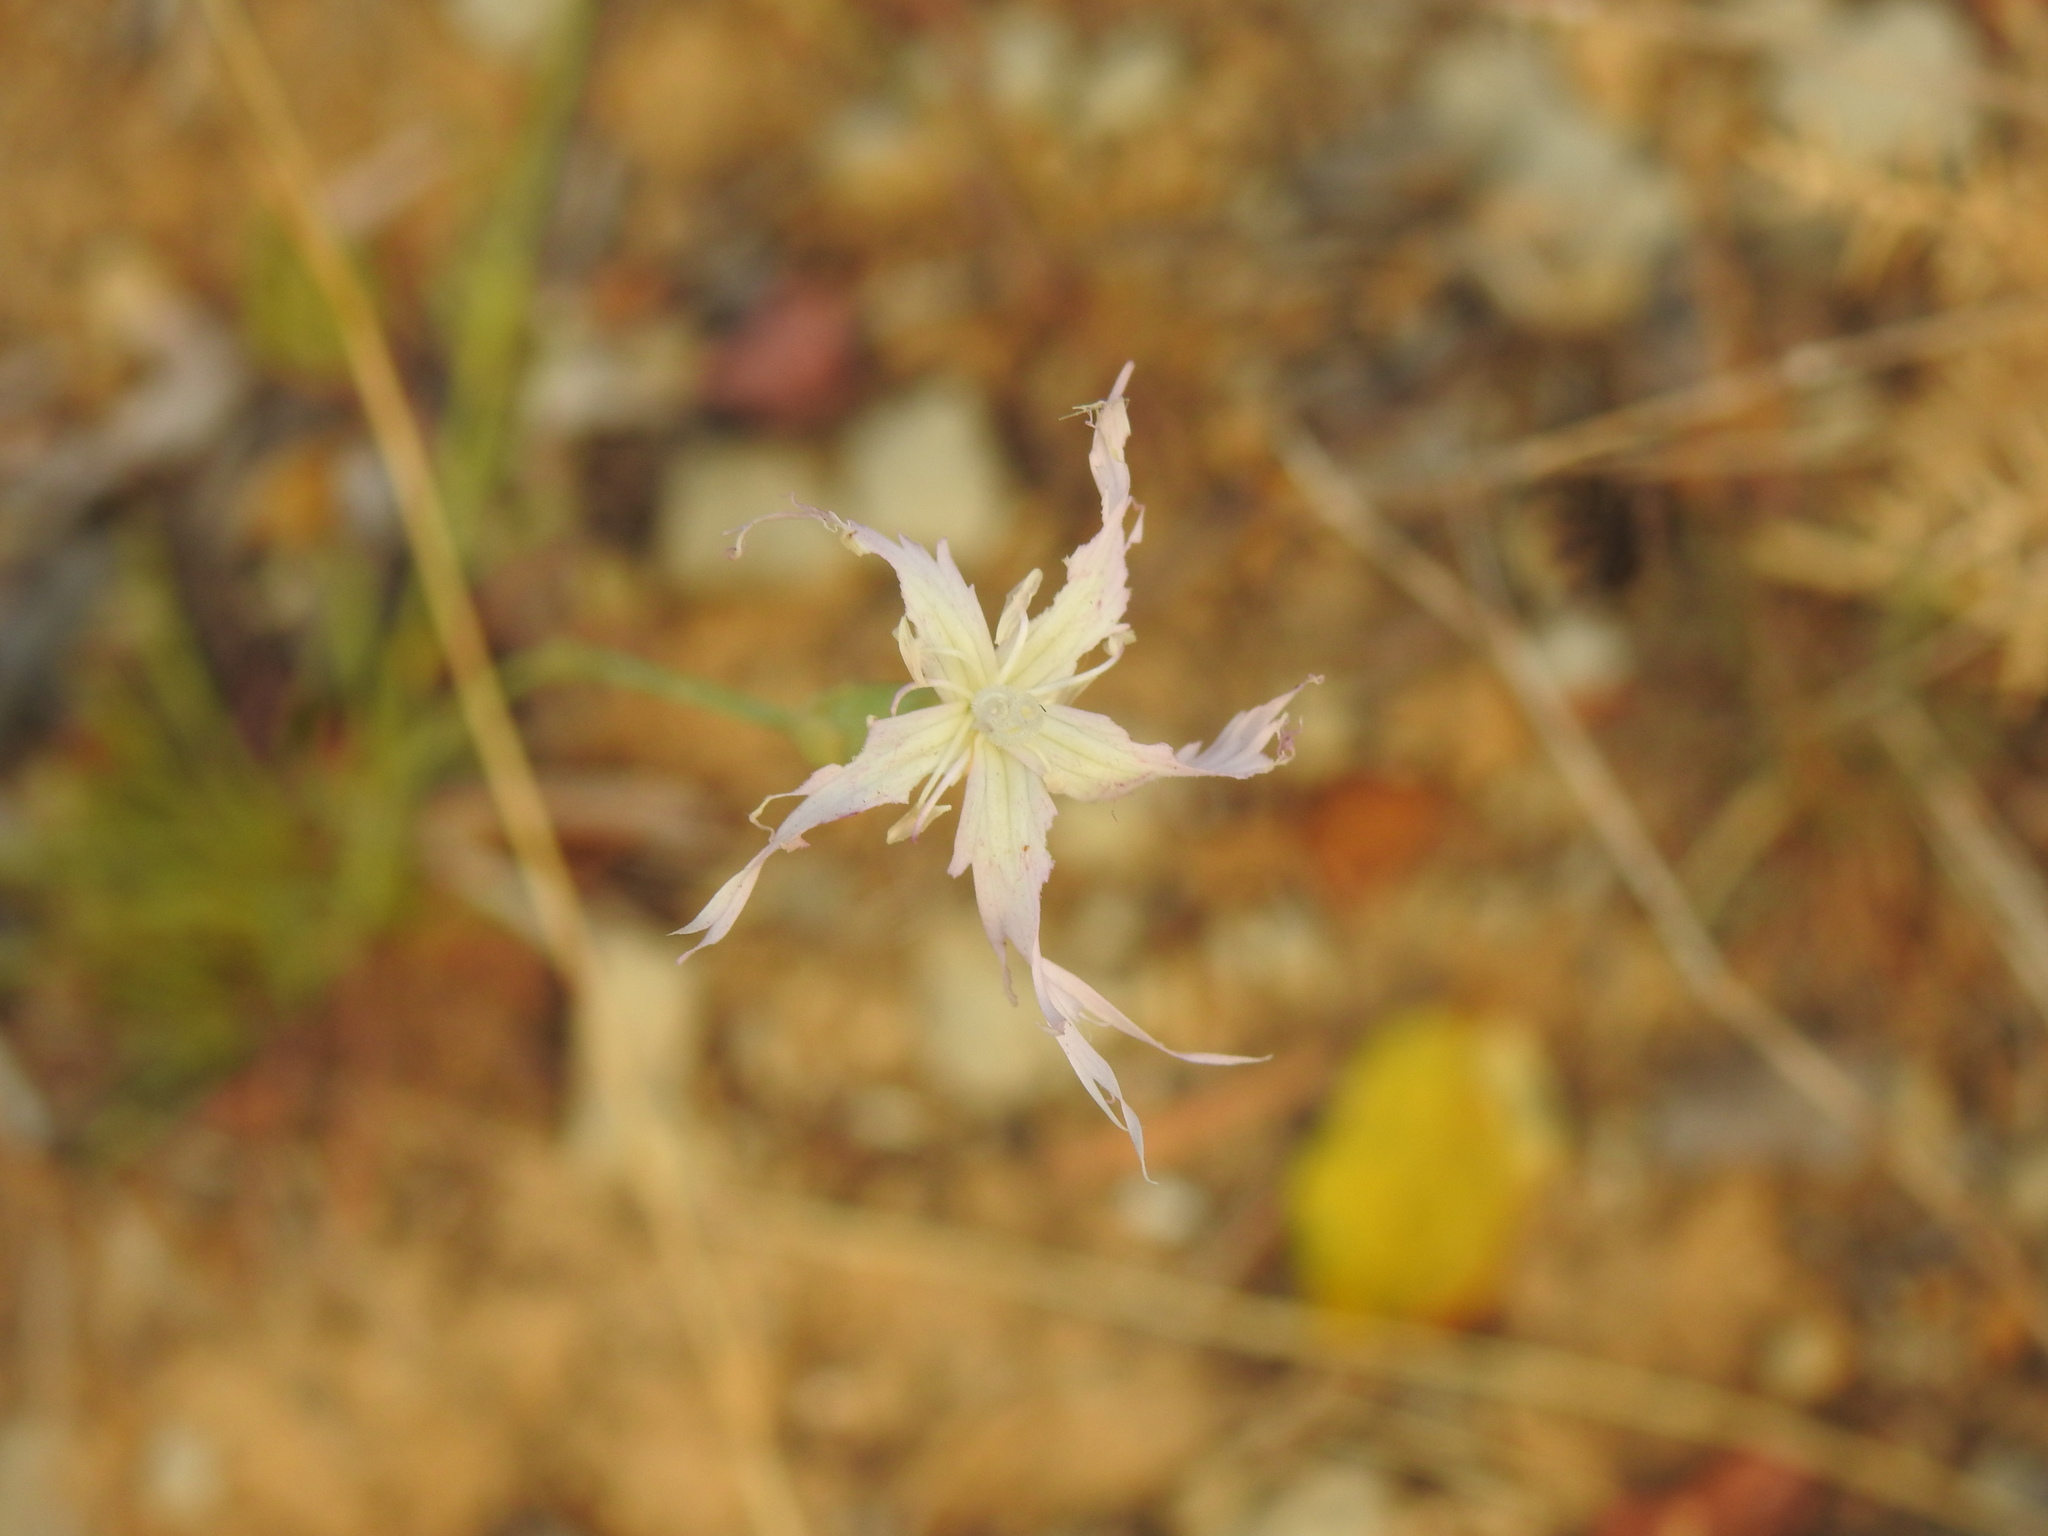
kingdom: Plantae
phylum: Tracheophyta
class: Magnoliopsida
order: Caryophyllales
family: Caryophyllaceae
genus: Dianthus
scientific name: Dianthus broteri
